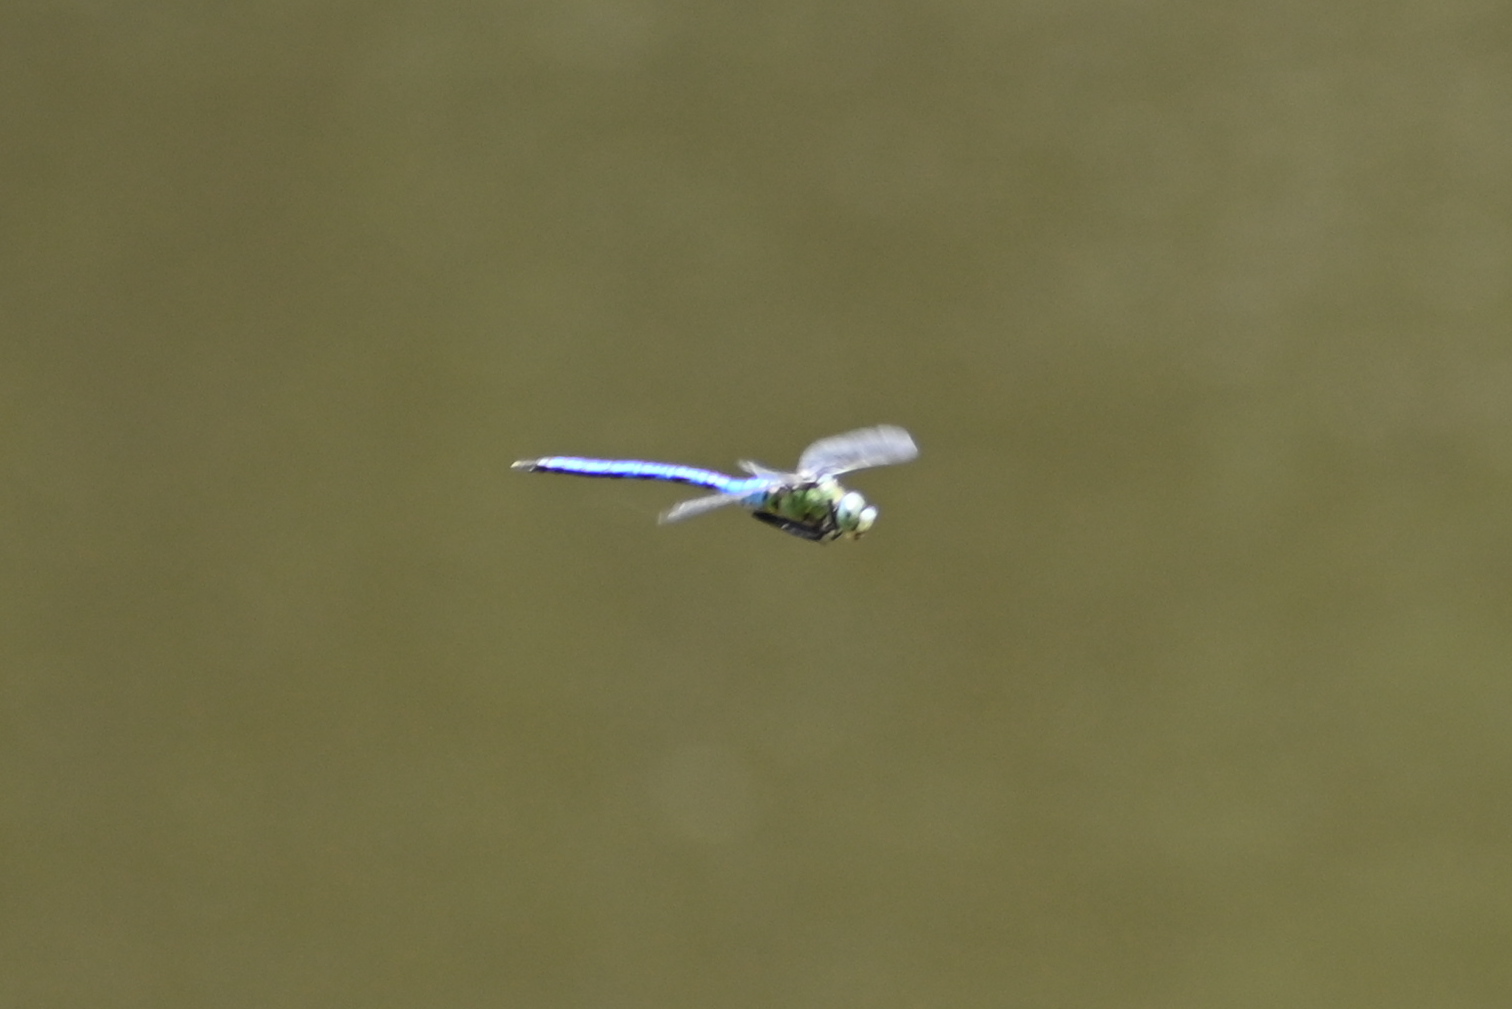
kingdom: Animalia
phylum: Arthropoda
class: Insecta
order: Odonata
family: Aeshnidae
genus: Anax
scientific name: Anax imperator
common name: Emperor dragonfly
